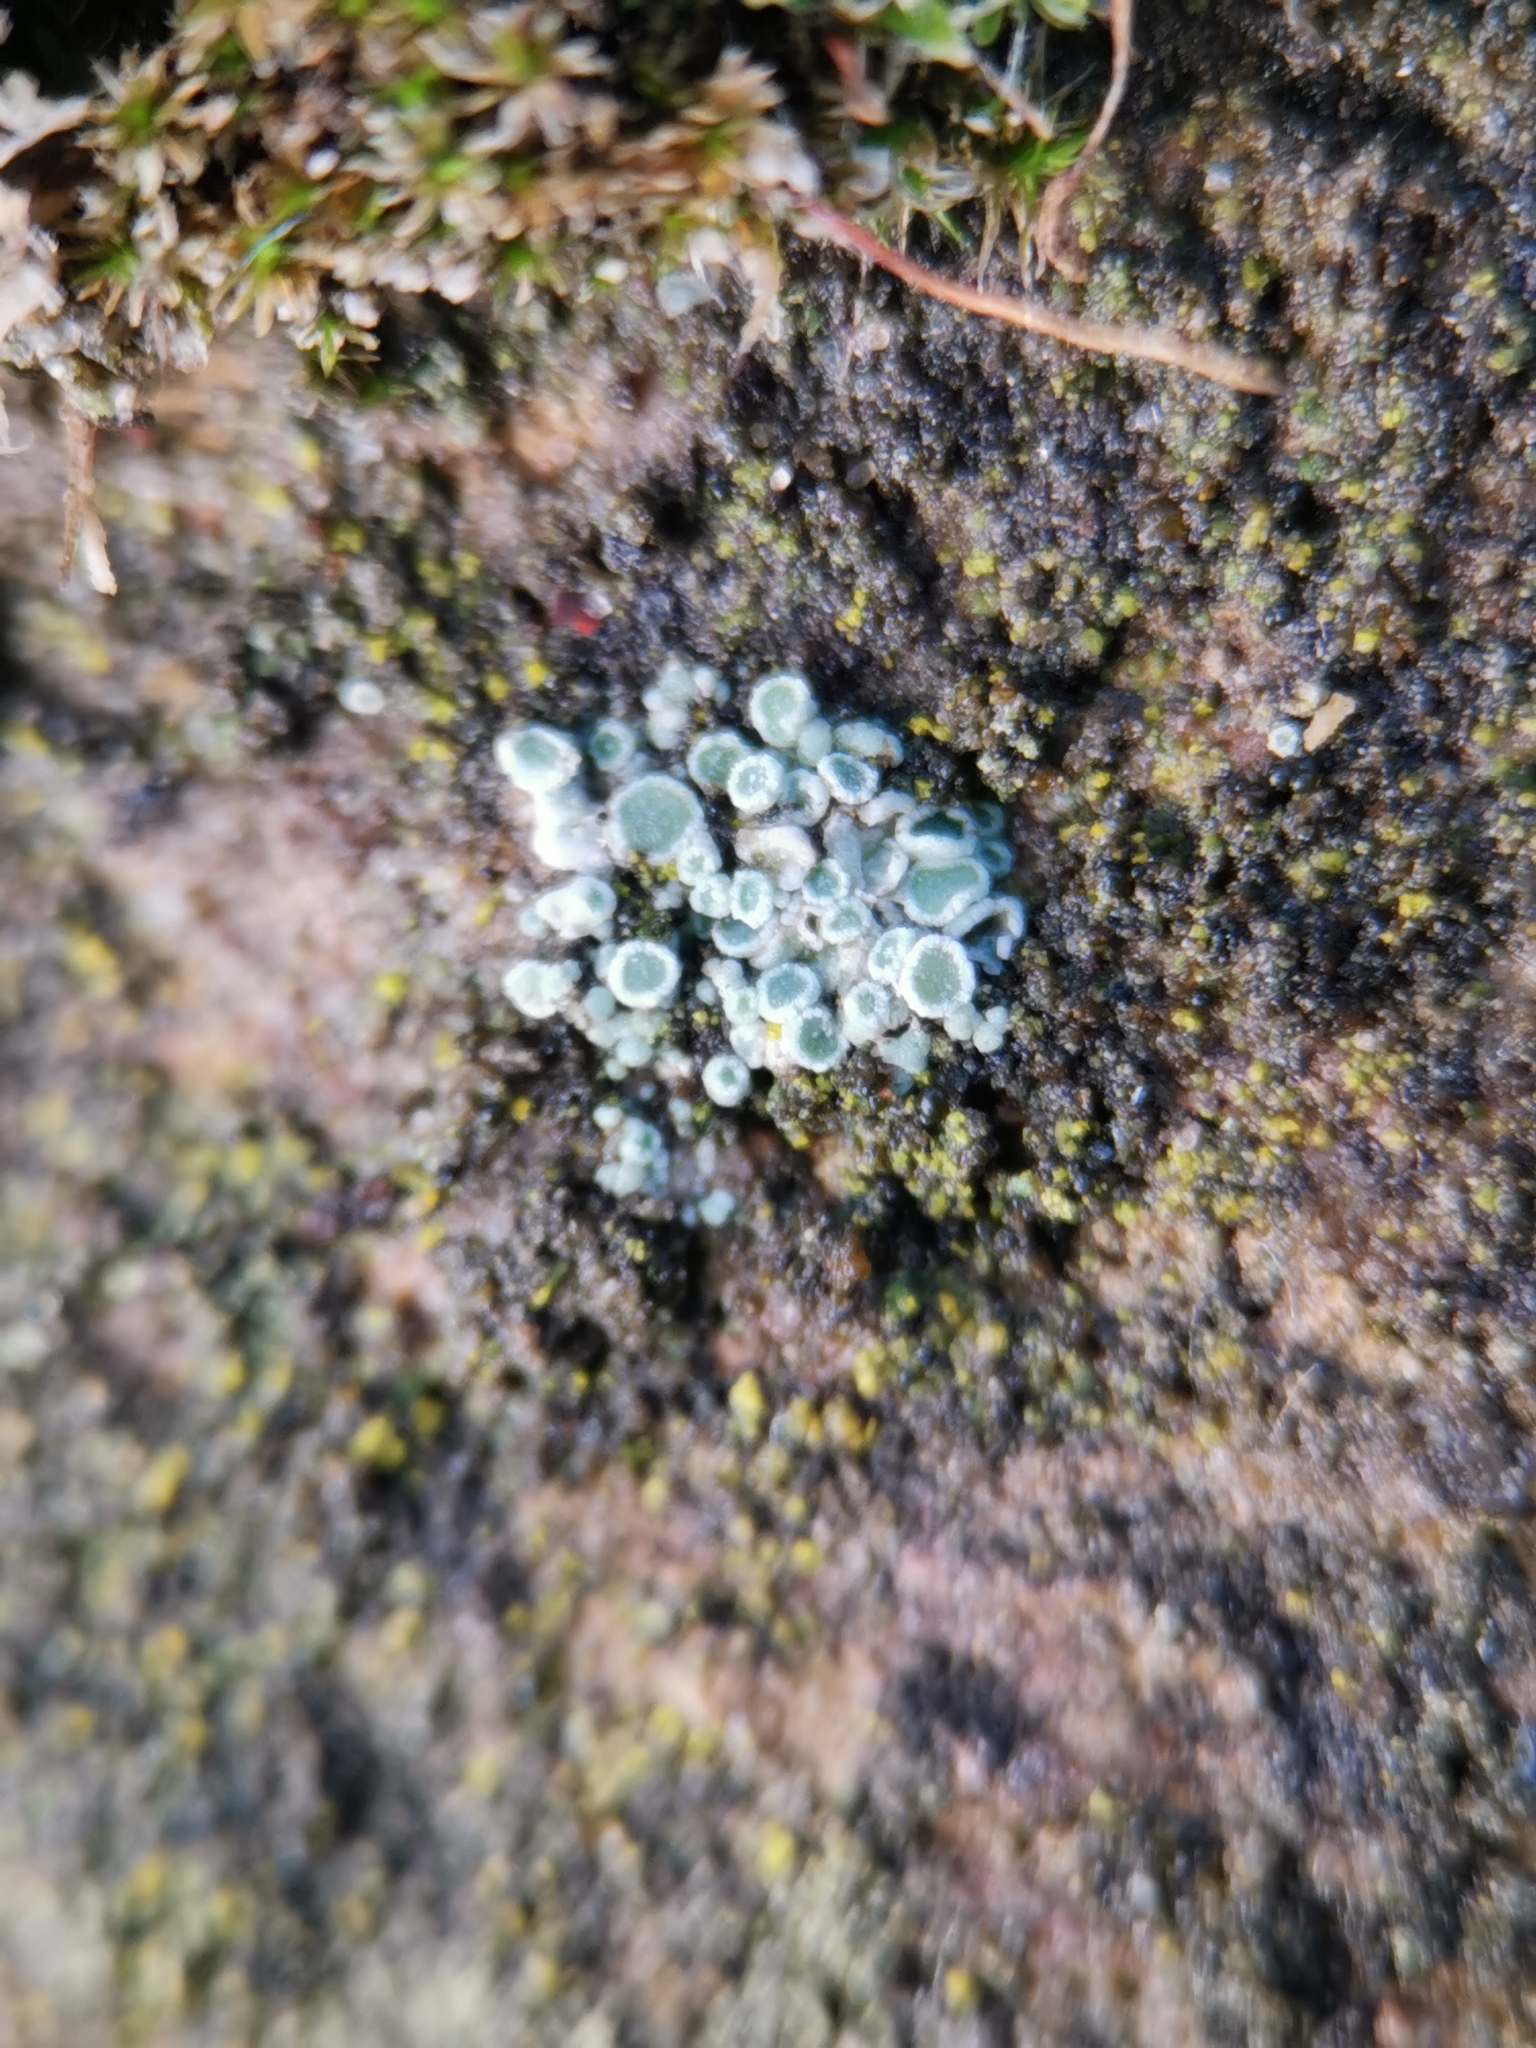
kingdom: Fungi
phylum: Ascomycota
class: Lecanoromycetes
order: Lecanorales
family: Lecanoraceae
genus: Polyozosia
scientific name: Polyozosia albescens
